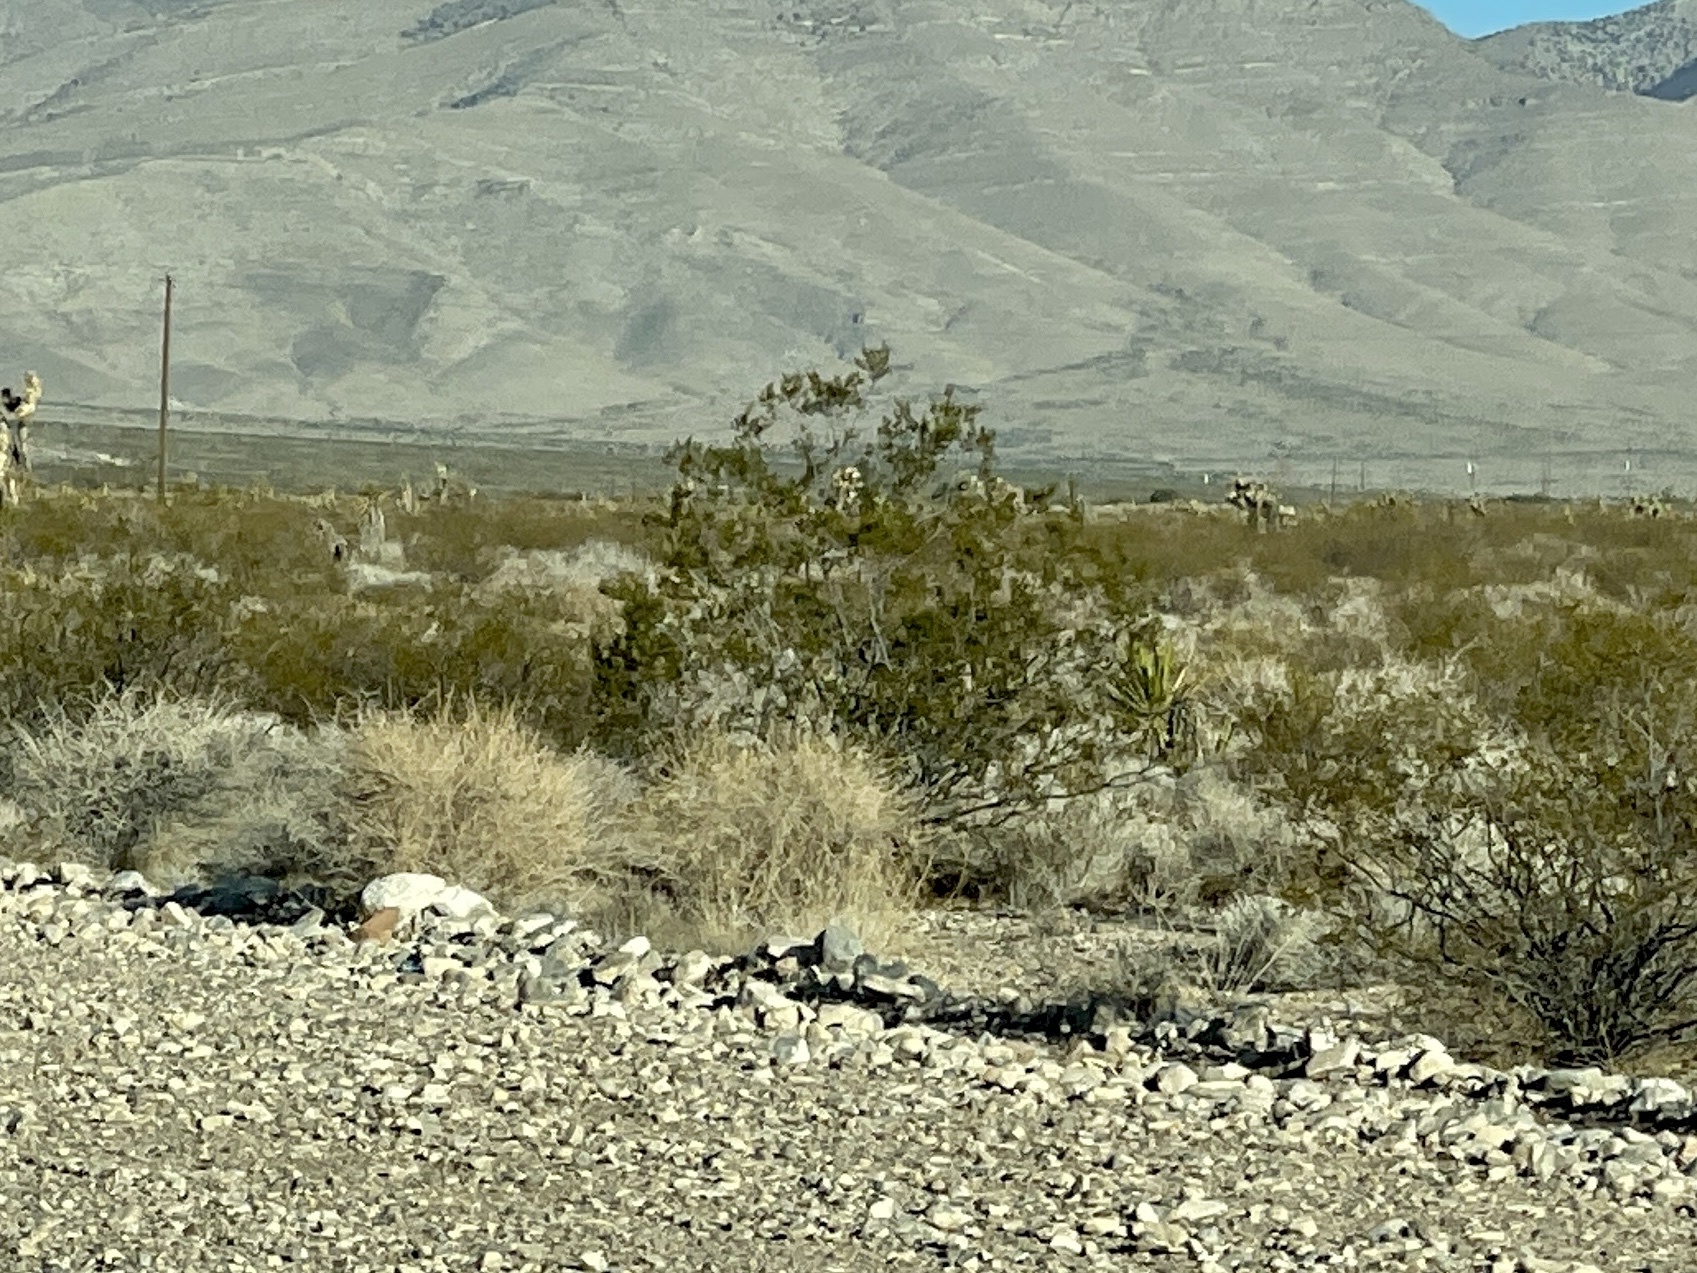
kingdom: Plantae
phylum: Tracheophyta
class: Magnoliopsida
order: Zygophyllales
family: Zygophyllaceae
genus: Larrea
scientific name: Larrea tridentata
